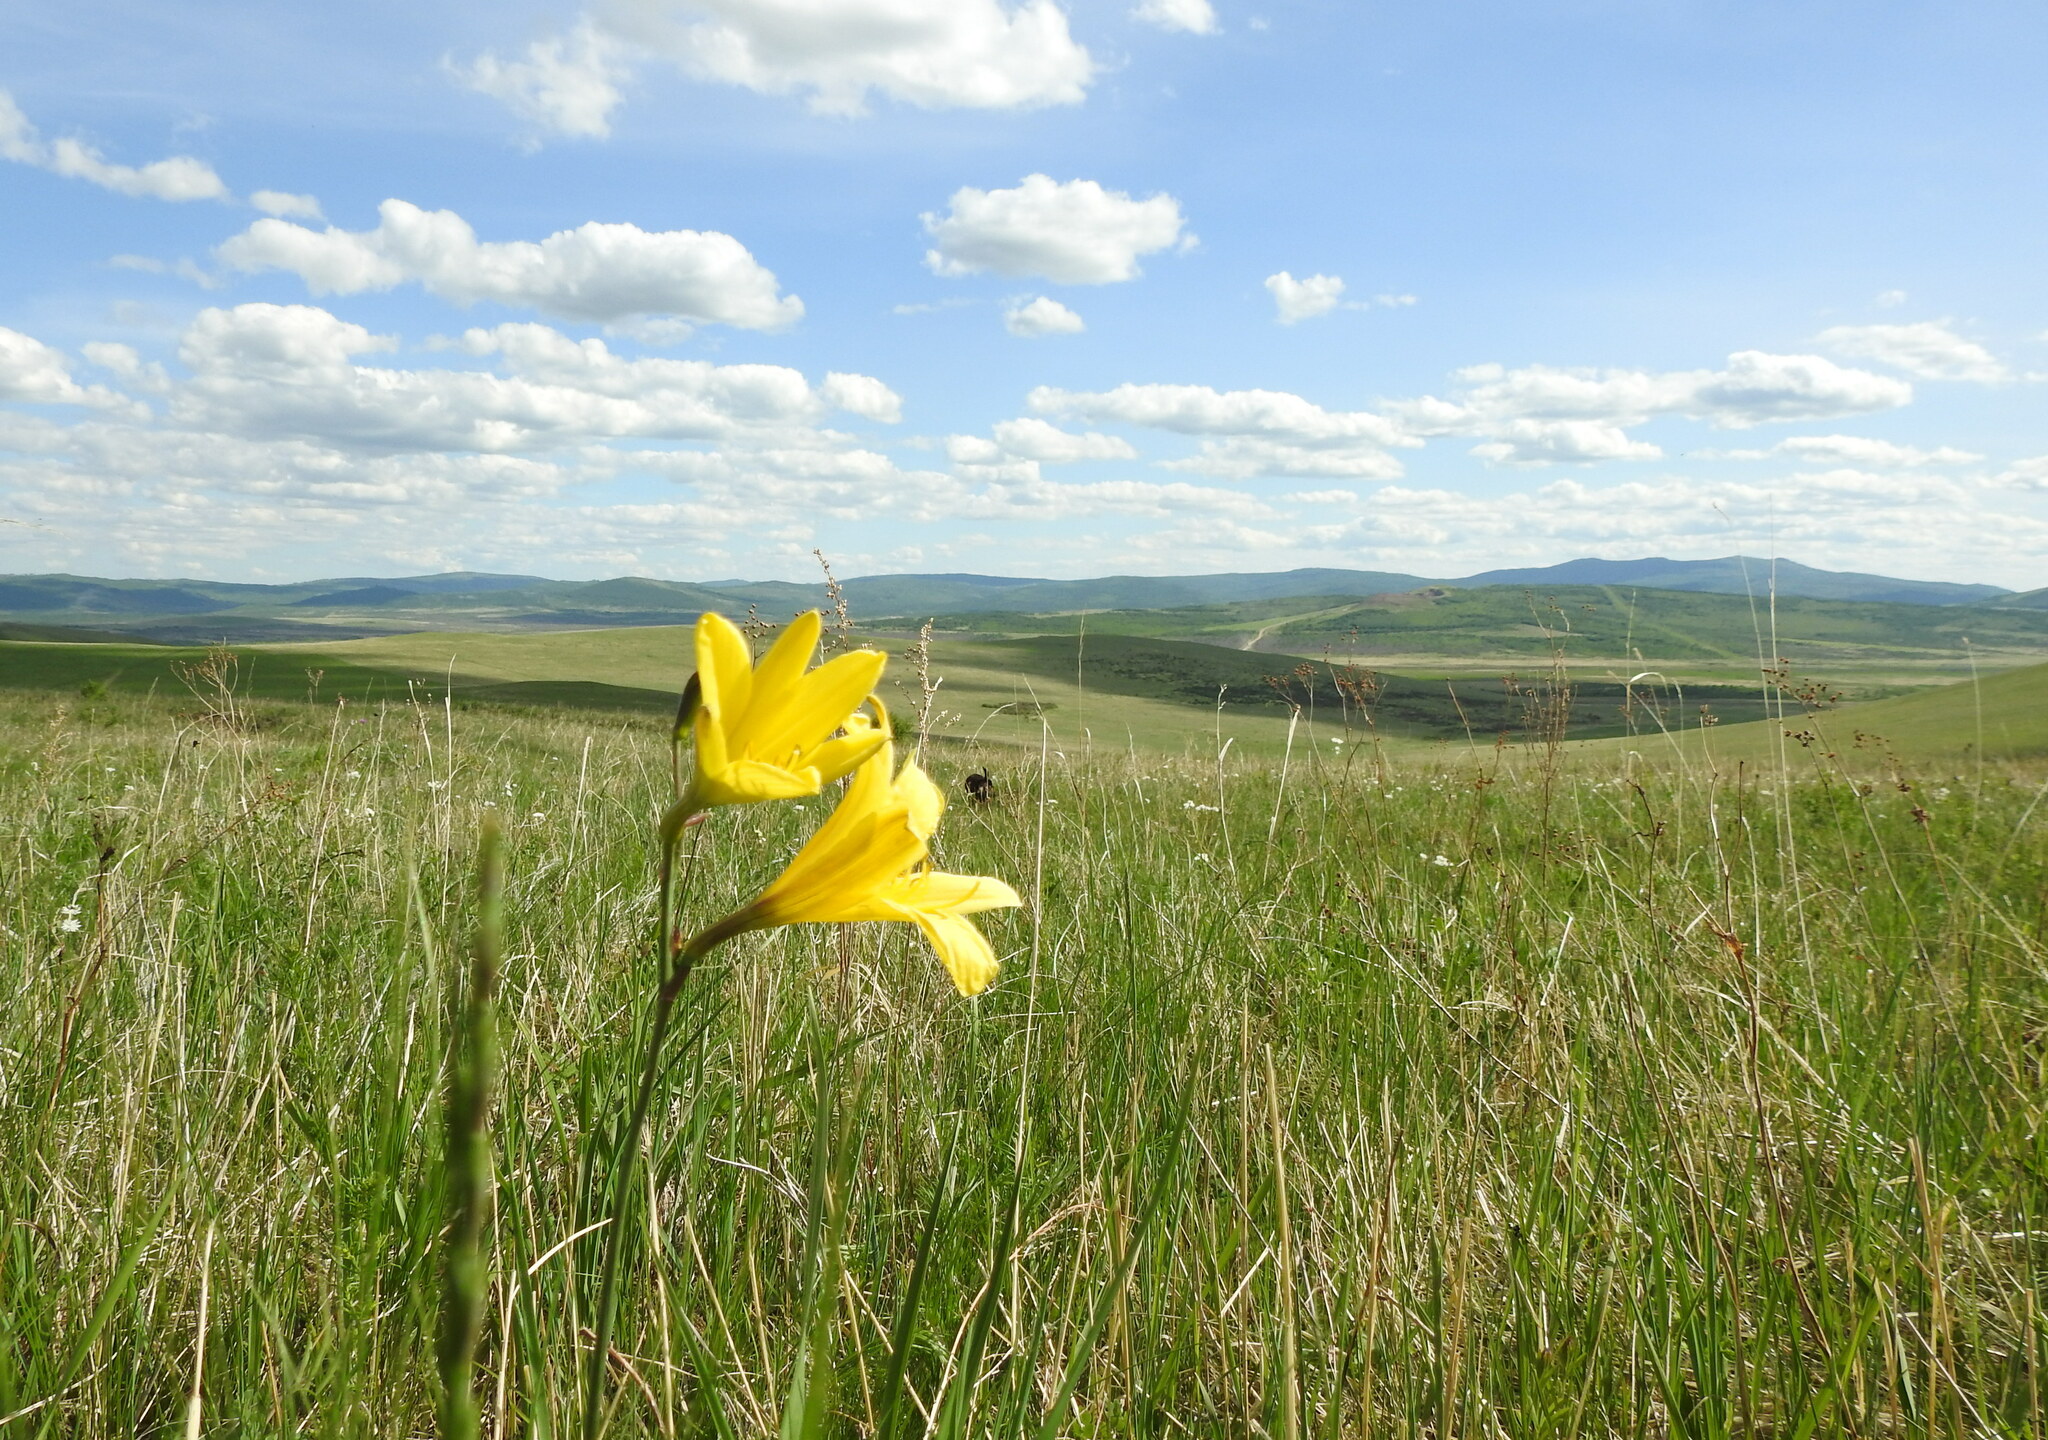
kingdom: Plantae
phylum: Tracheophyta
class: Liliopsida
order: Asparagales
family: Asphodelaceae
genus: Hemerocallis
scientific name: Hemerocallis minor
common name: Small daylily
